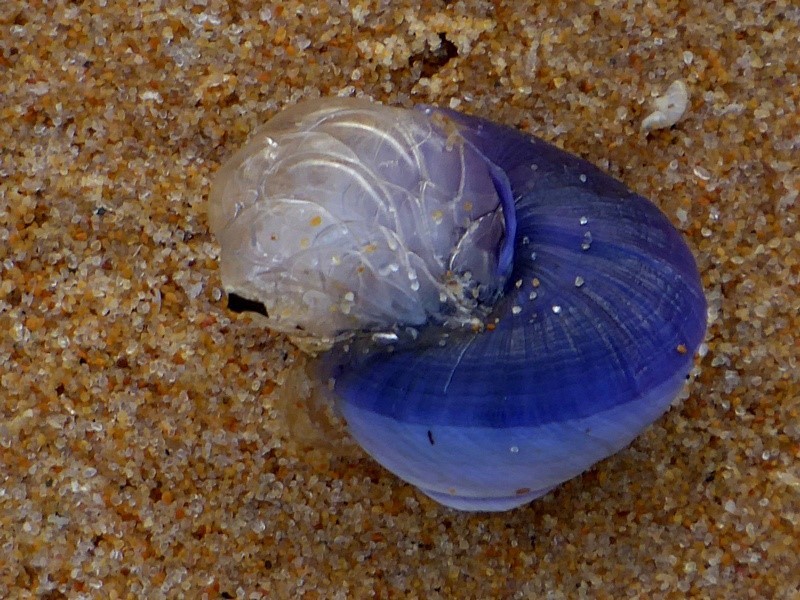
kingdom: Animalia
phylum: Mollusca
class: Gastropoda
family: Epitoniidae
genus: Janthina
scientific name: Janthina janthina
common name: Common janthina
